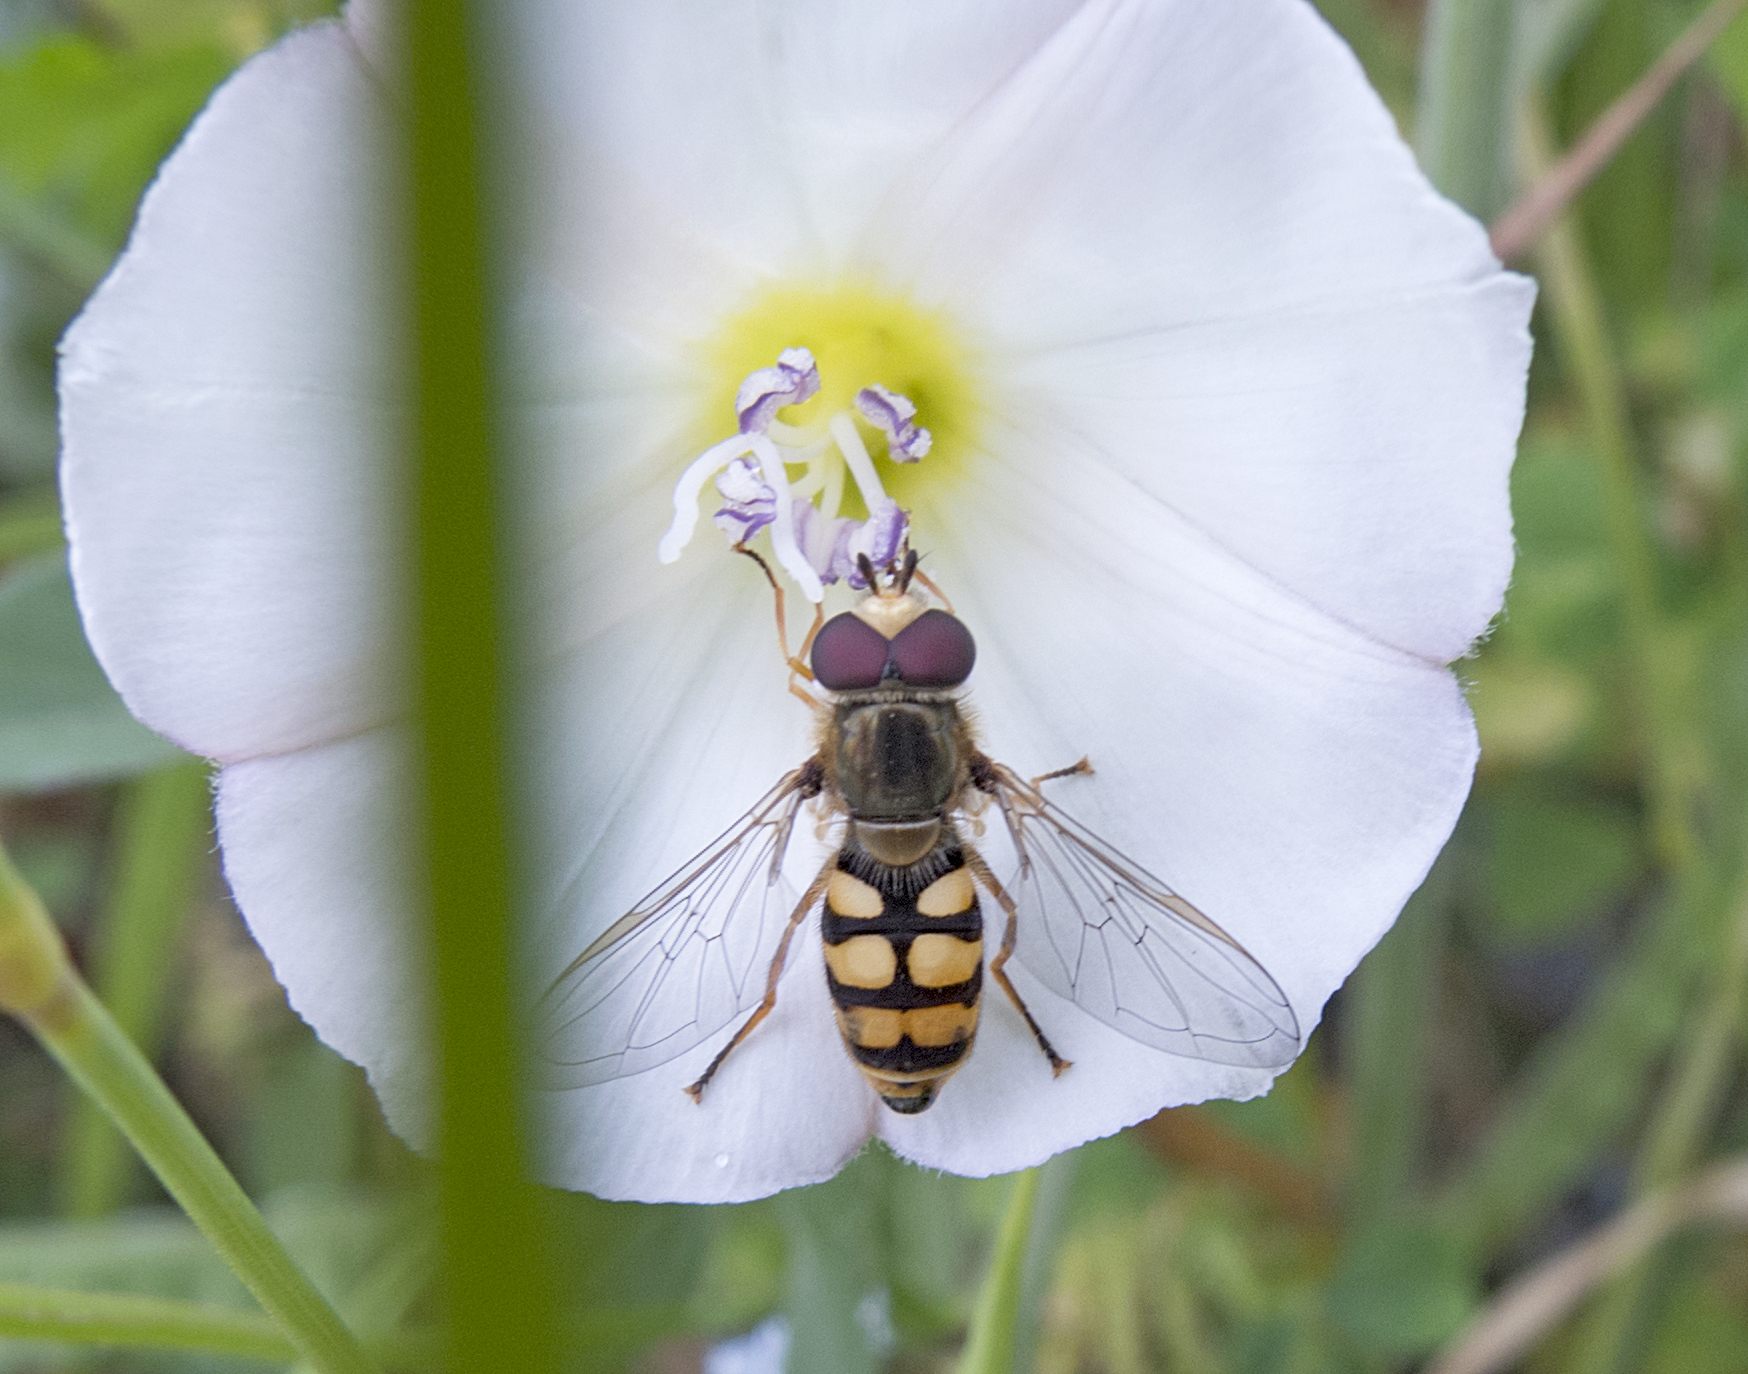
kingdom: Animalia
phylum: Arthropoda
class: Insecta
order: Diptera
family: Syrphidae
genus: Eupeodes
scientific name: Eupeodes corollae
